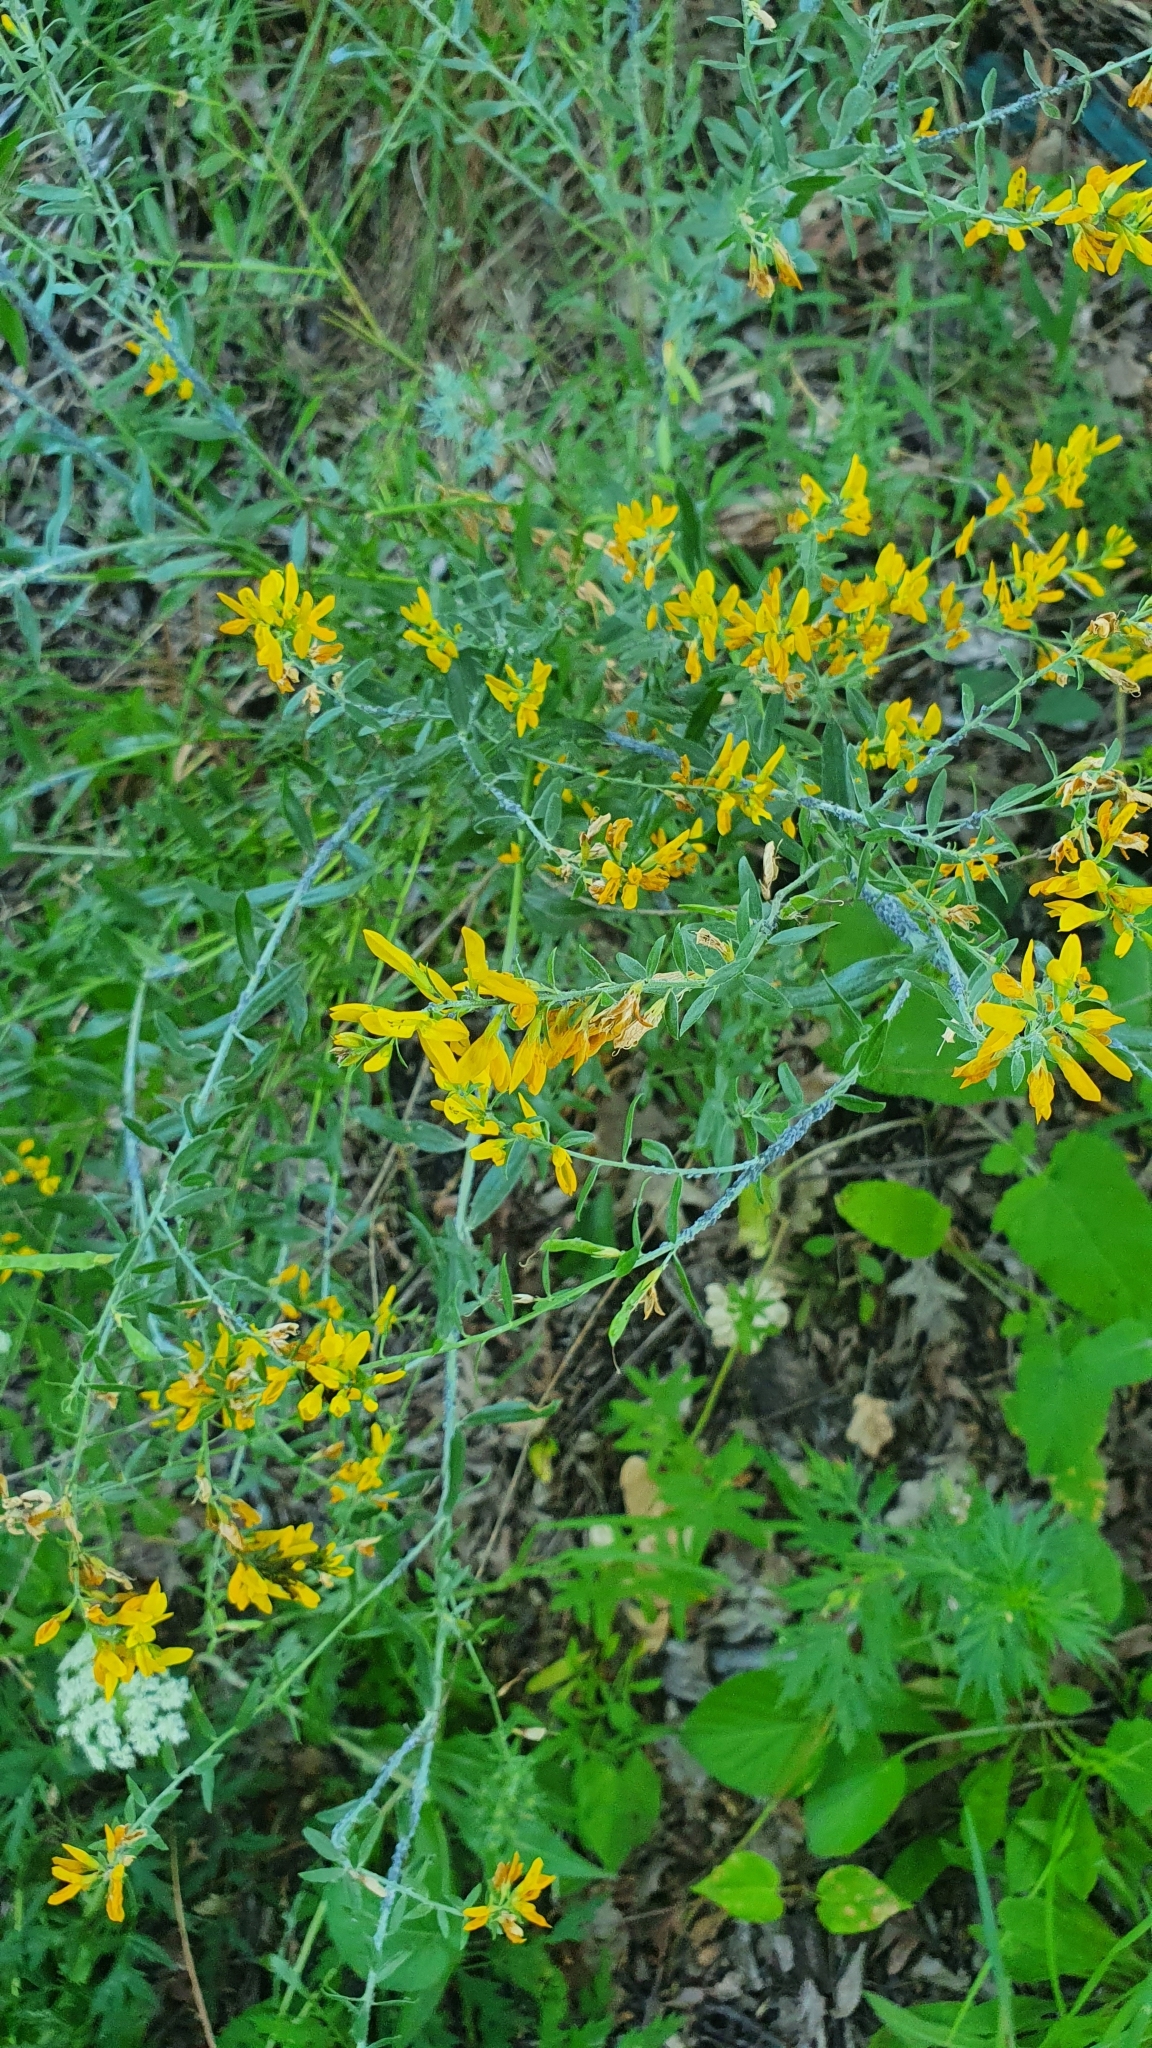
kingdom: Plantae
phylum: Tracheophyta
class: Magnoliopsida
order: Fabales
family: Fabaceae
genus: Genista
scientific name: Genista tinctoria
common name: Dyer's greenweed
